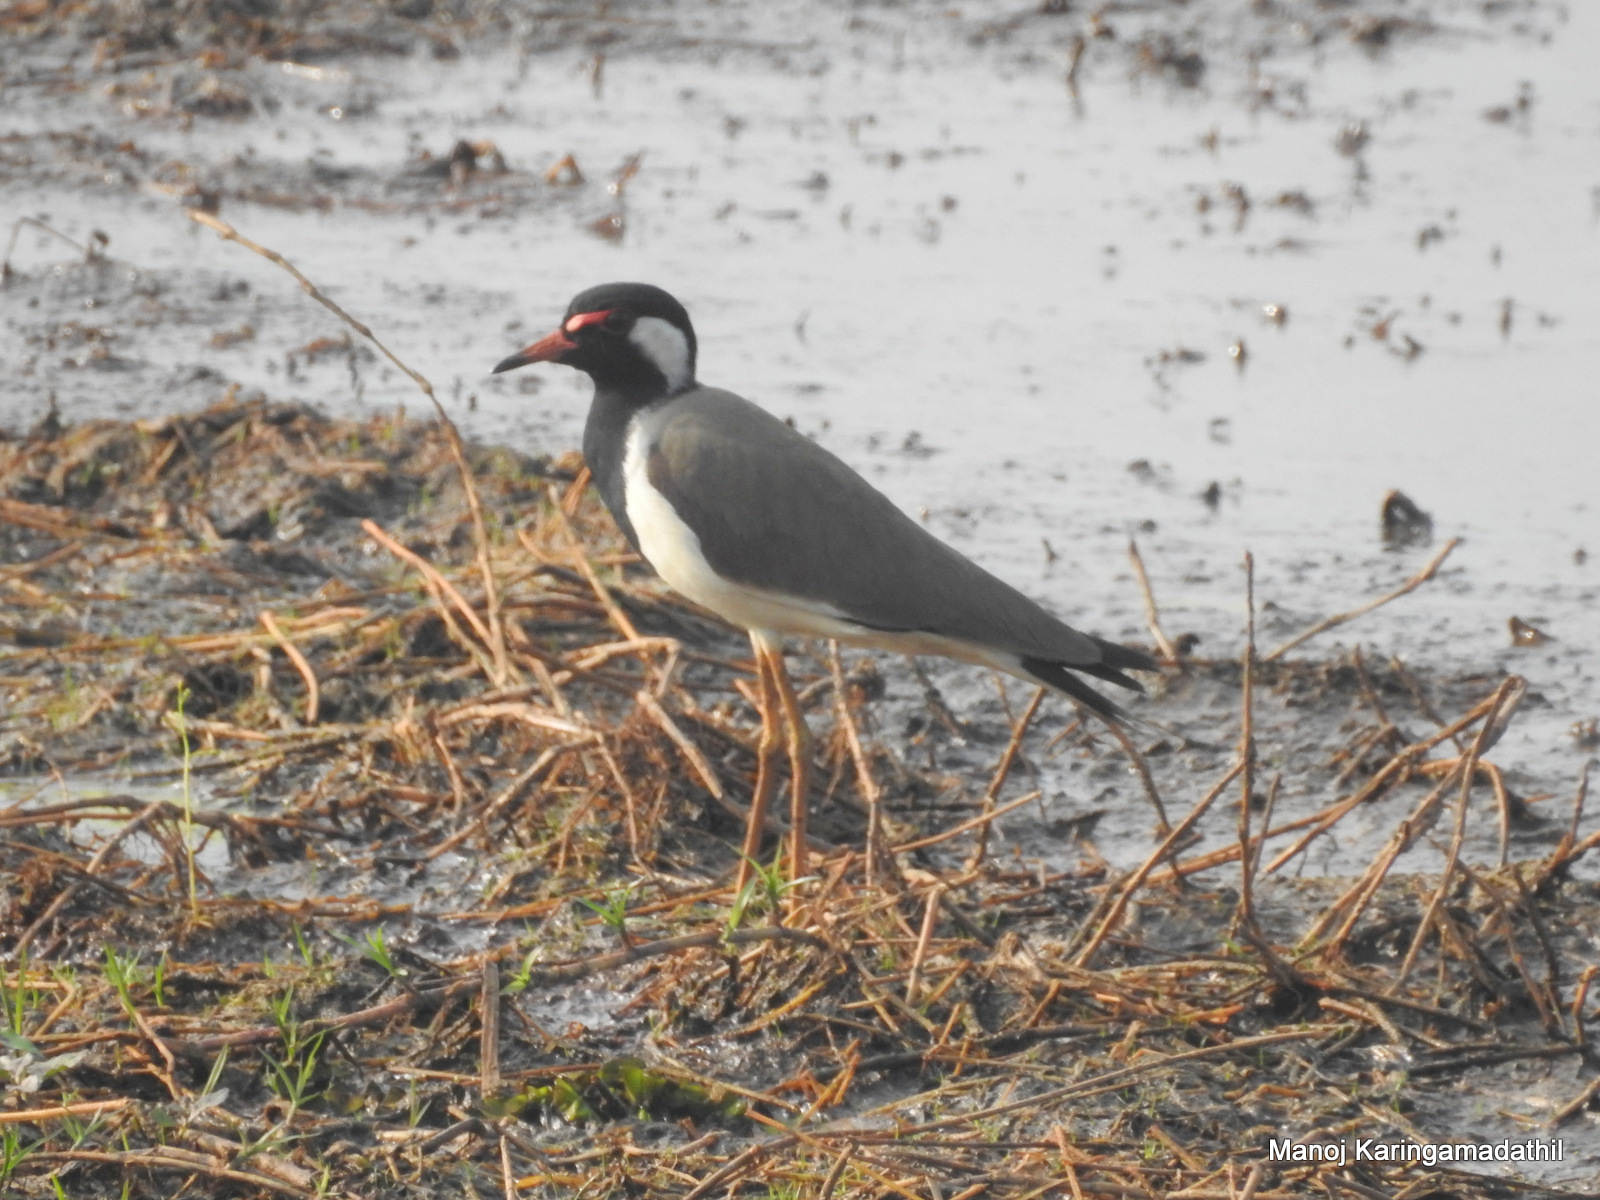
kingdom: Animalia
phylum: Chordata
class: Aves
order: Charadriiformes
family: Charadriidae
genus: Vanellus
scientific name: Vanellus indicus
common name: Red-wattled lapwing
